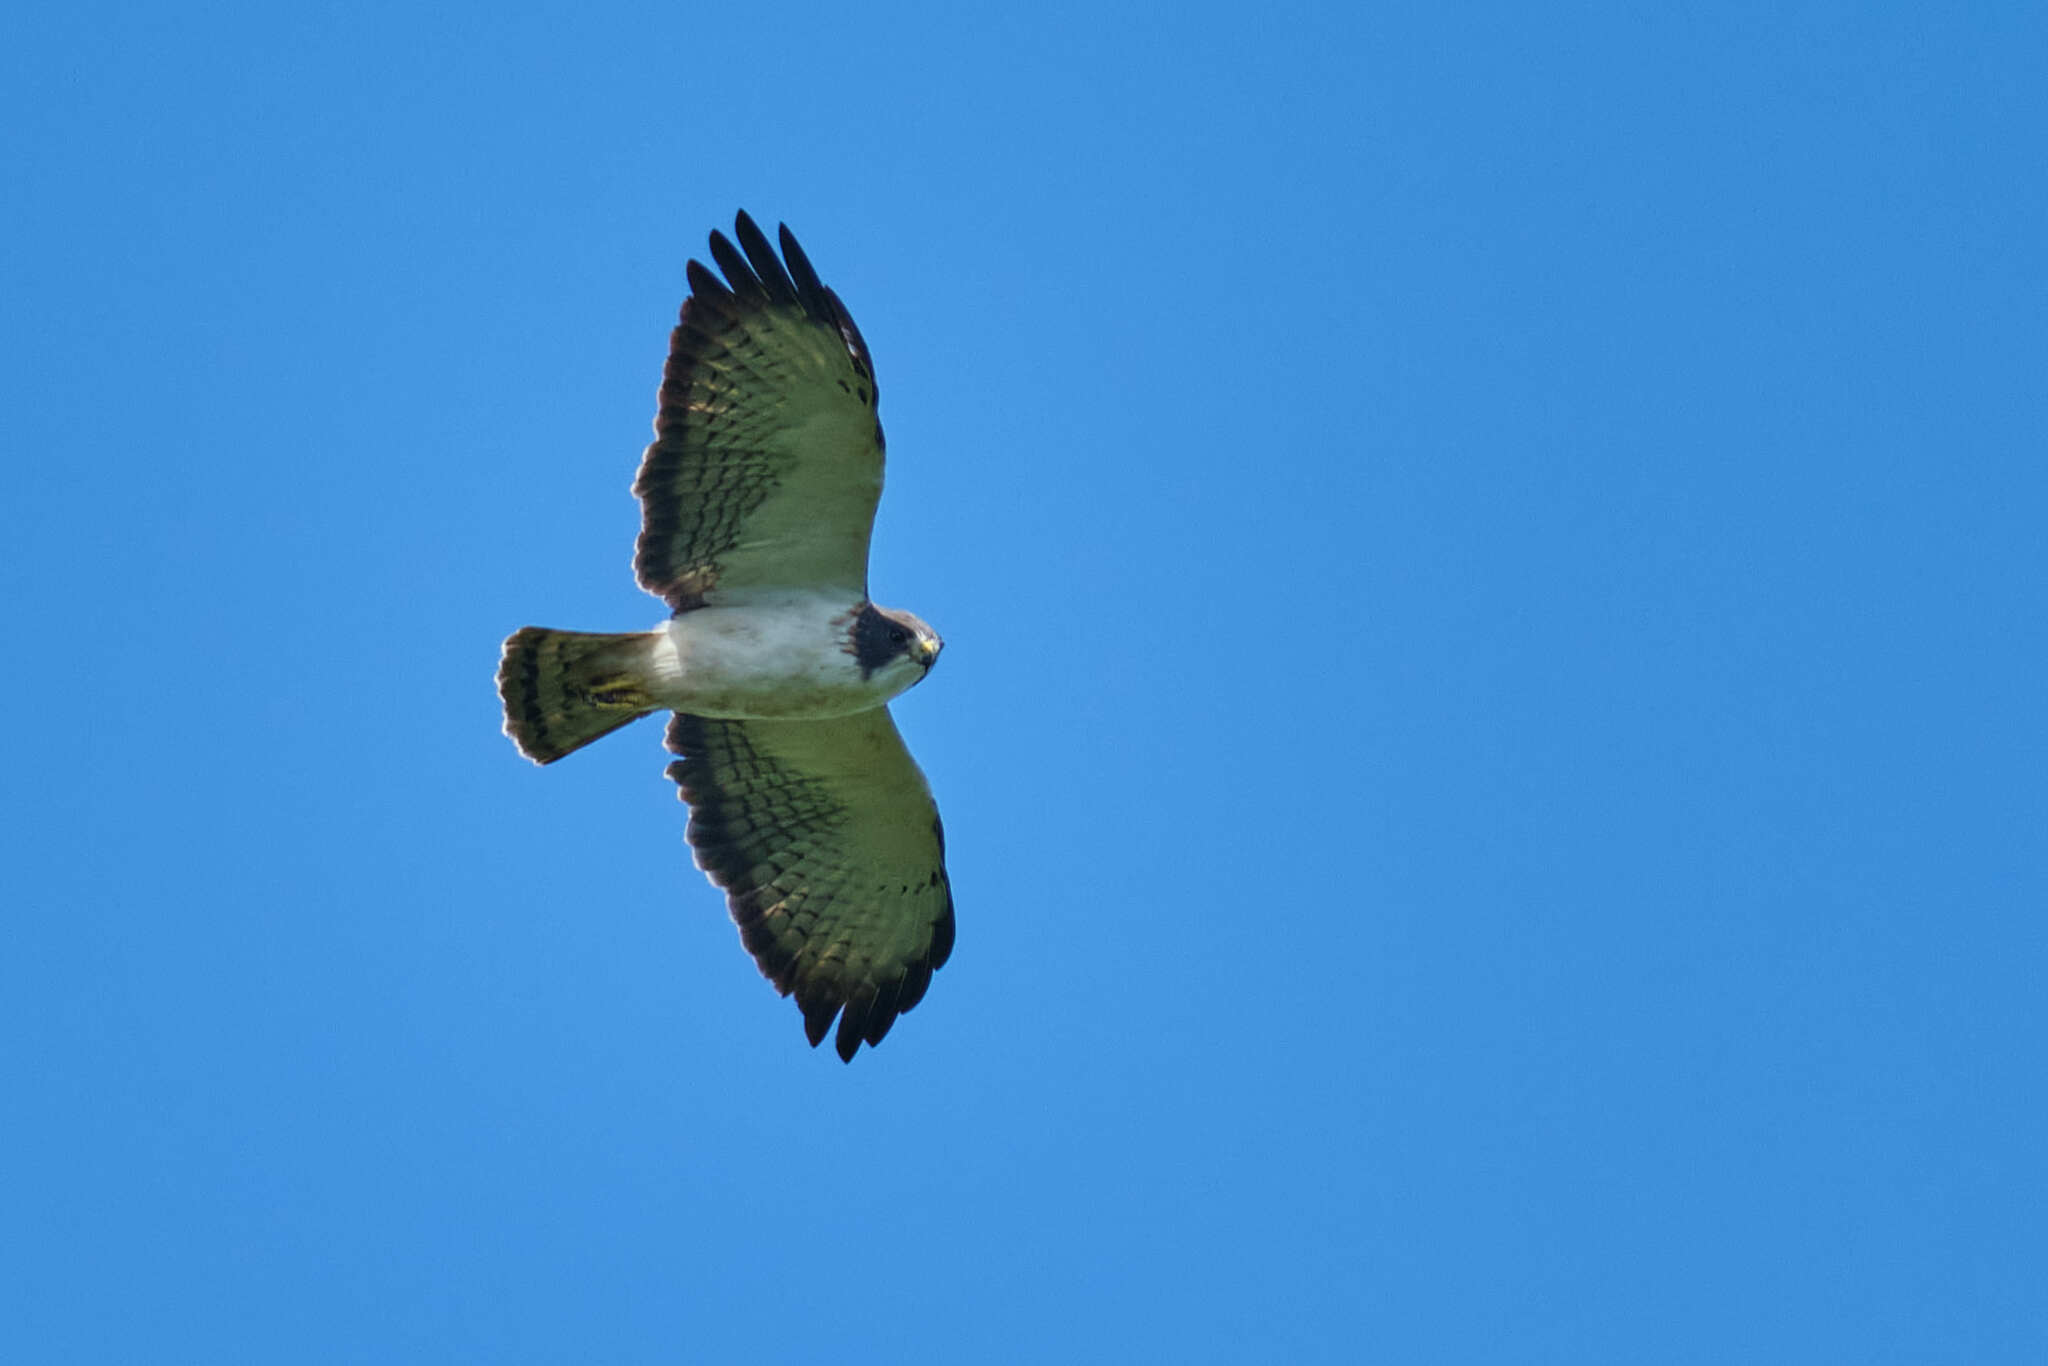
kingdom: Animalia
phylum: Chordata
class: Aves
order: Accipitriformes
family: Accipitridae
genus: Buteo
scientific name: Buteo brachyurus
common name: Short-tailed hawk
